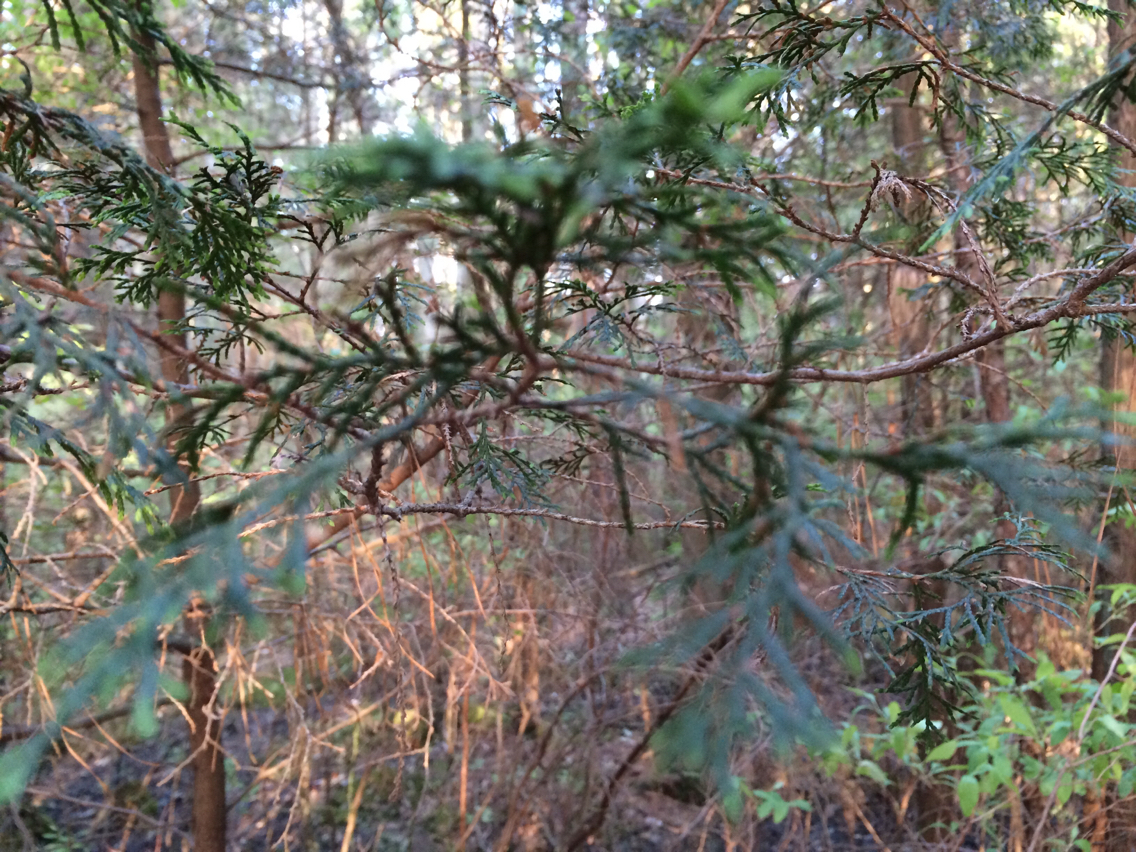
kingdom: Plantae
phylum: Tracheophyta
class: Pinopsida
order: Pinales
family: Cupressaceae
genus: Chamaecyparis
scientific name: Chamaecyparis thyoides
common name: Atlantic white cedar
